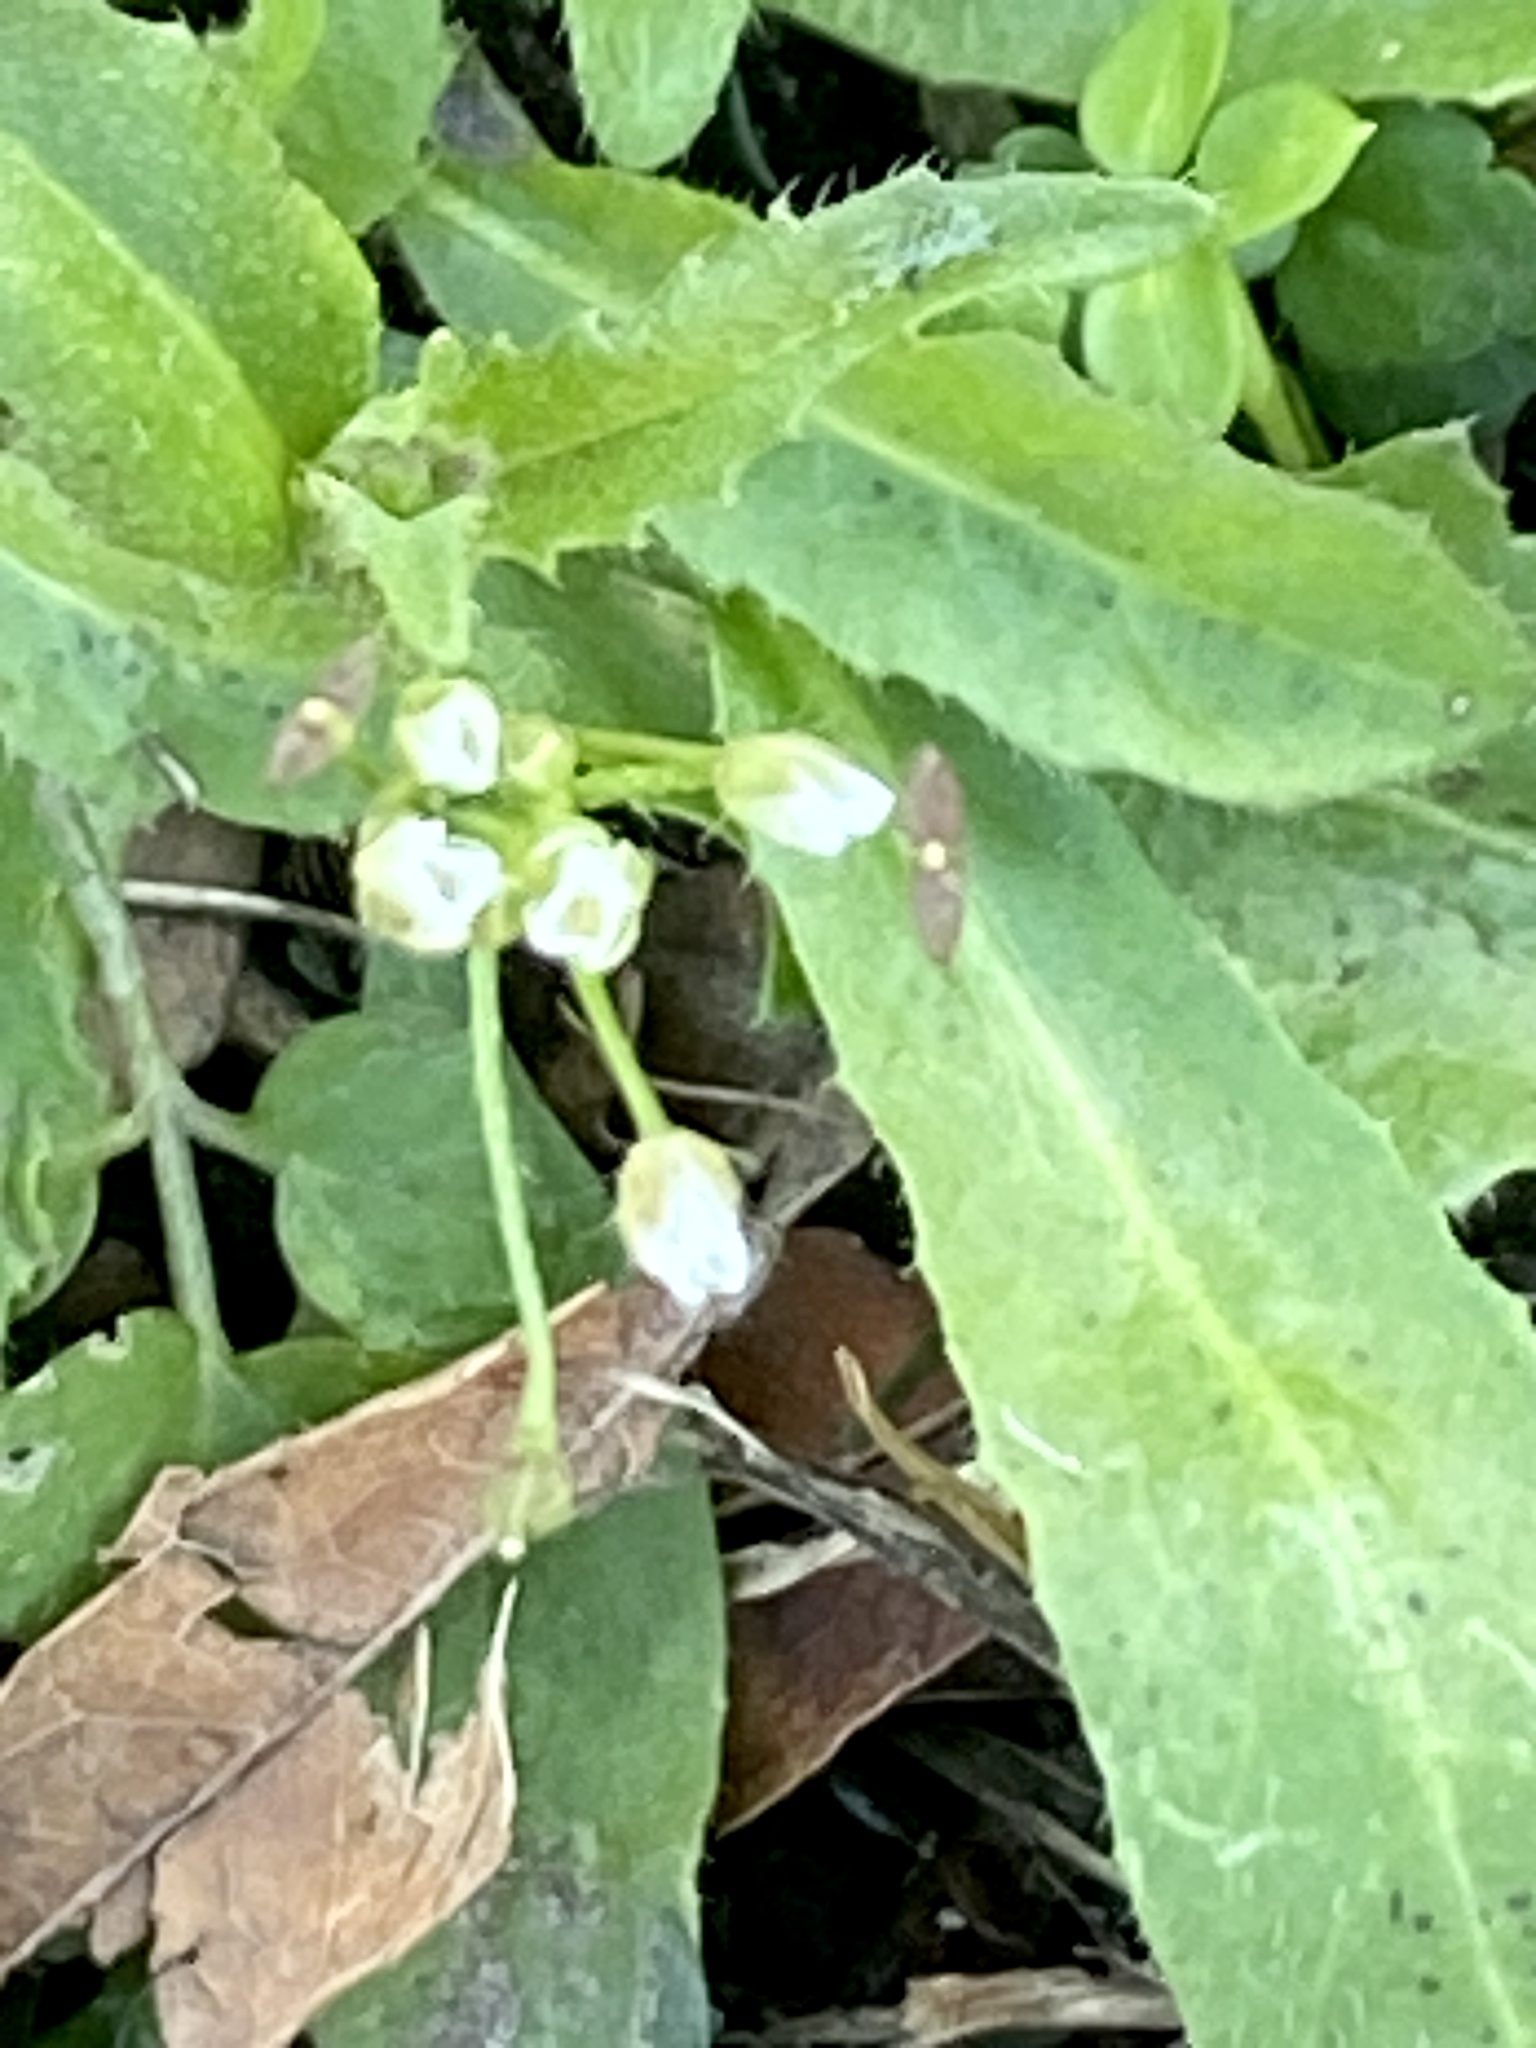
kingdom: Plantae
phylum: Tracheophyta
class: Magnoliopsida
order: Brassicales
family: Brassicaceae
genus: Capsella
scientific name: Capsella bursa-pastoris
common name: Shepherd's purse
